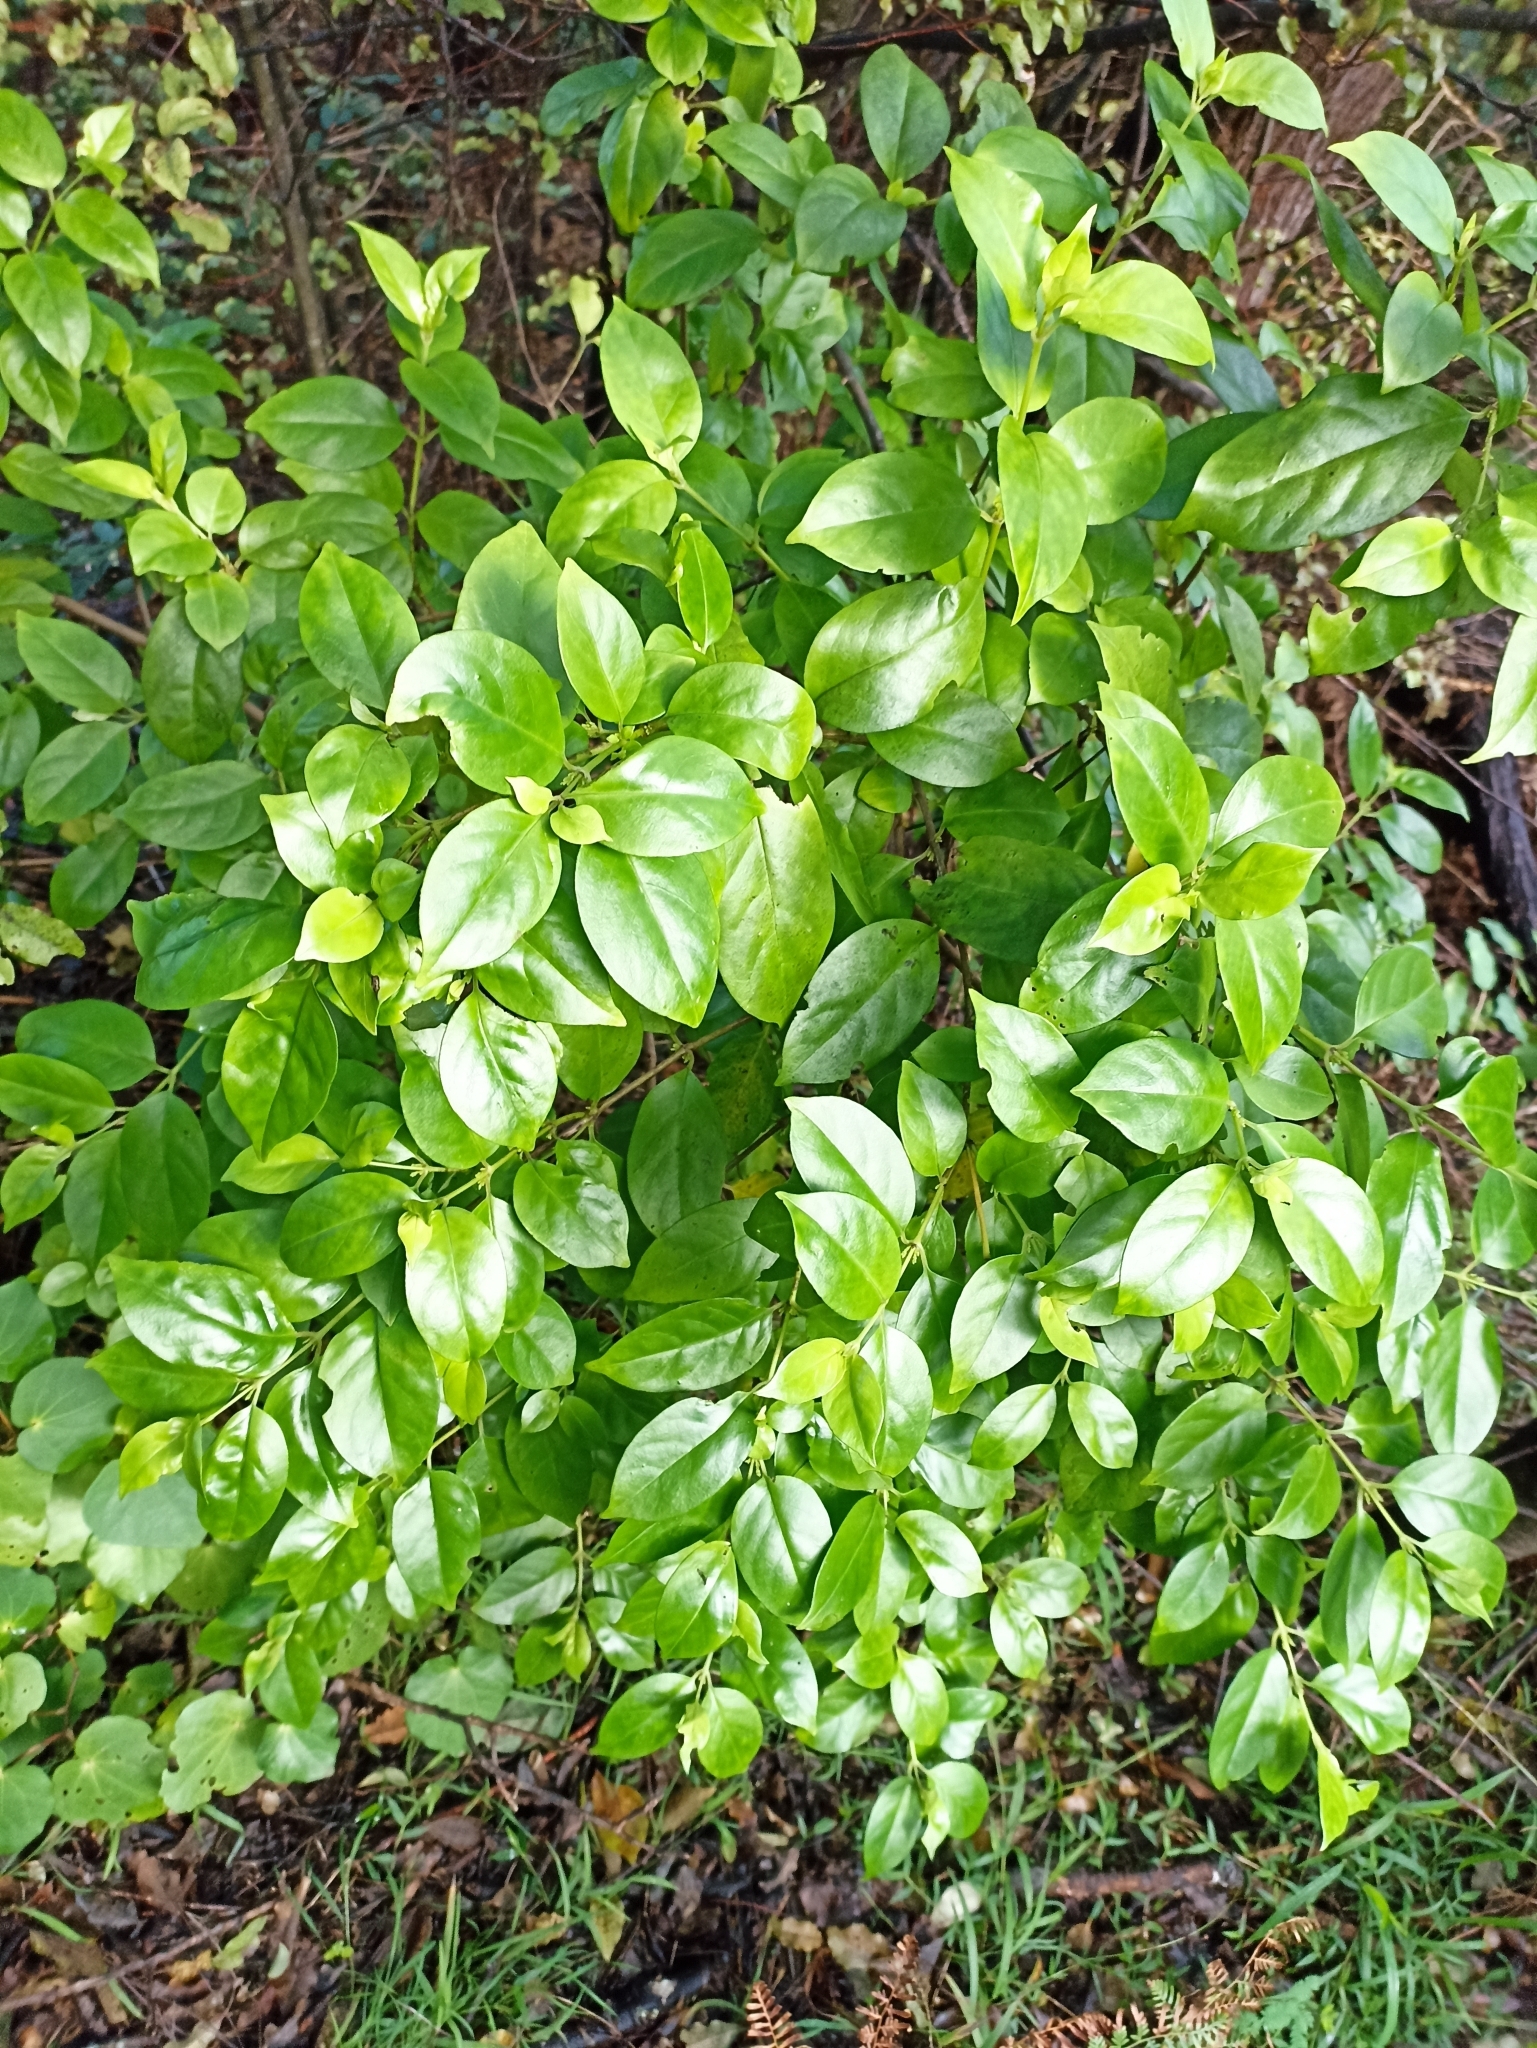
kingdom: Plantae
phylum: Tracheophyta
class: Magnoliopsida
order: Gentianales
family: Loganiaceae
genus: Geniostoma
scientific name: Geniostoma ligustrifolium
